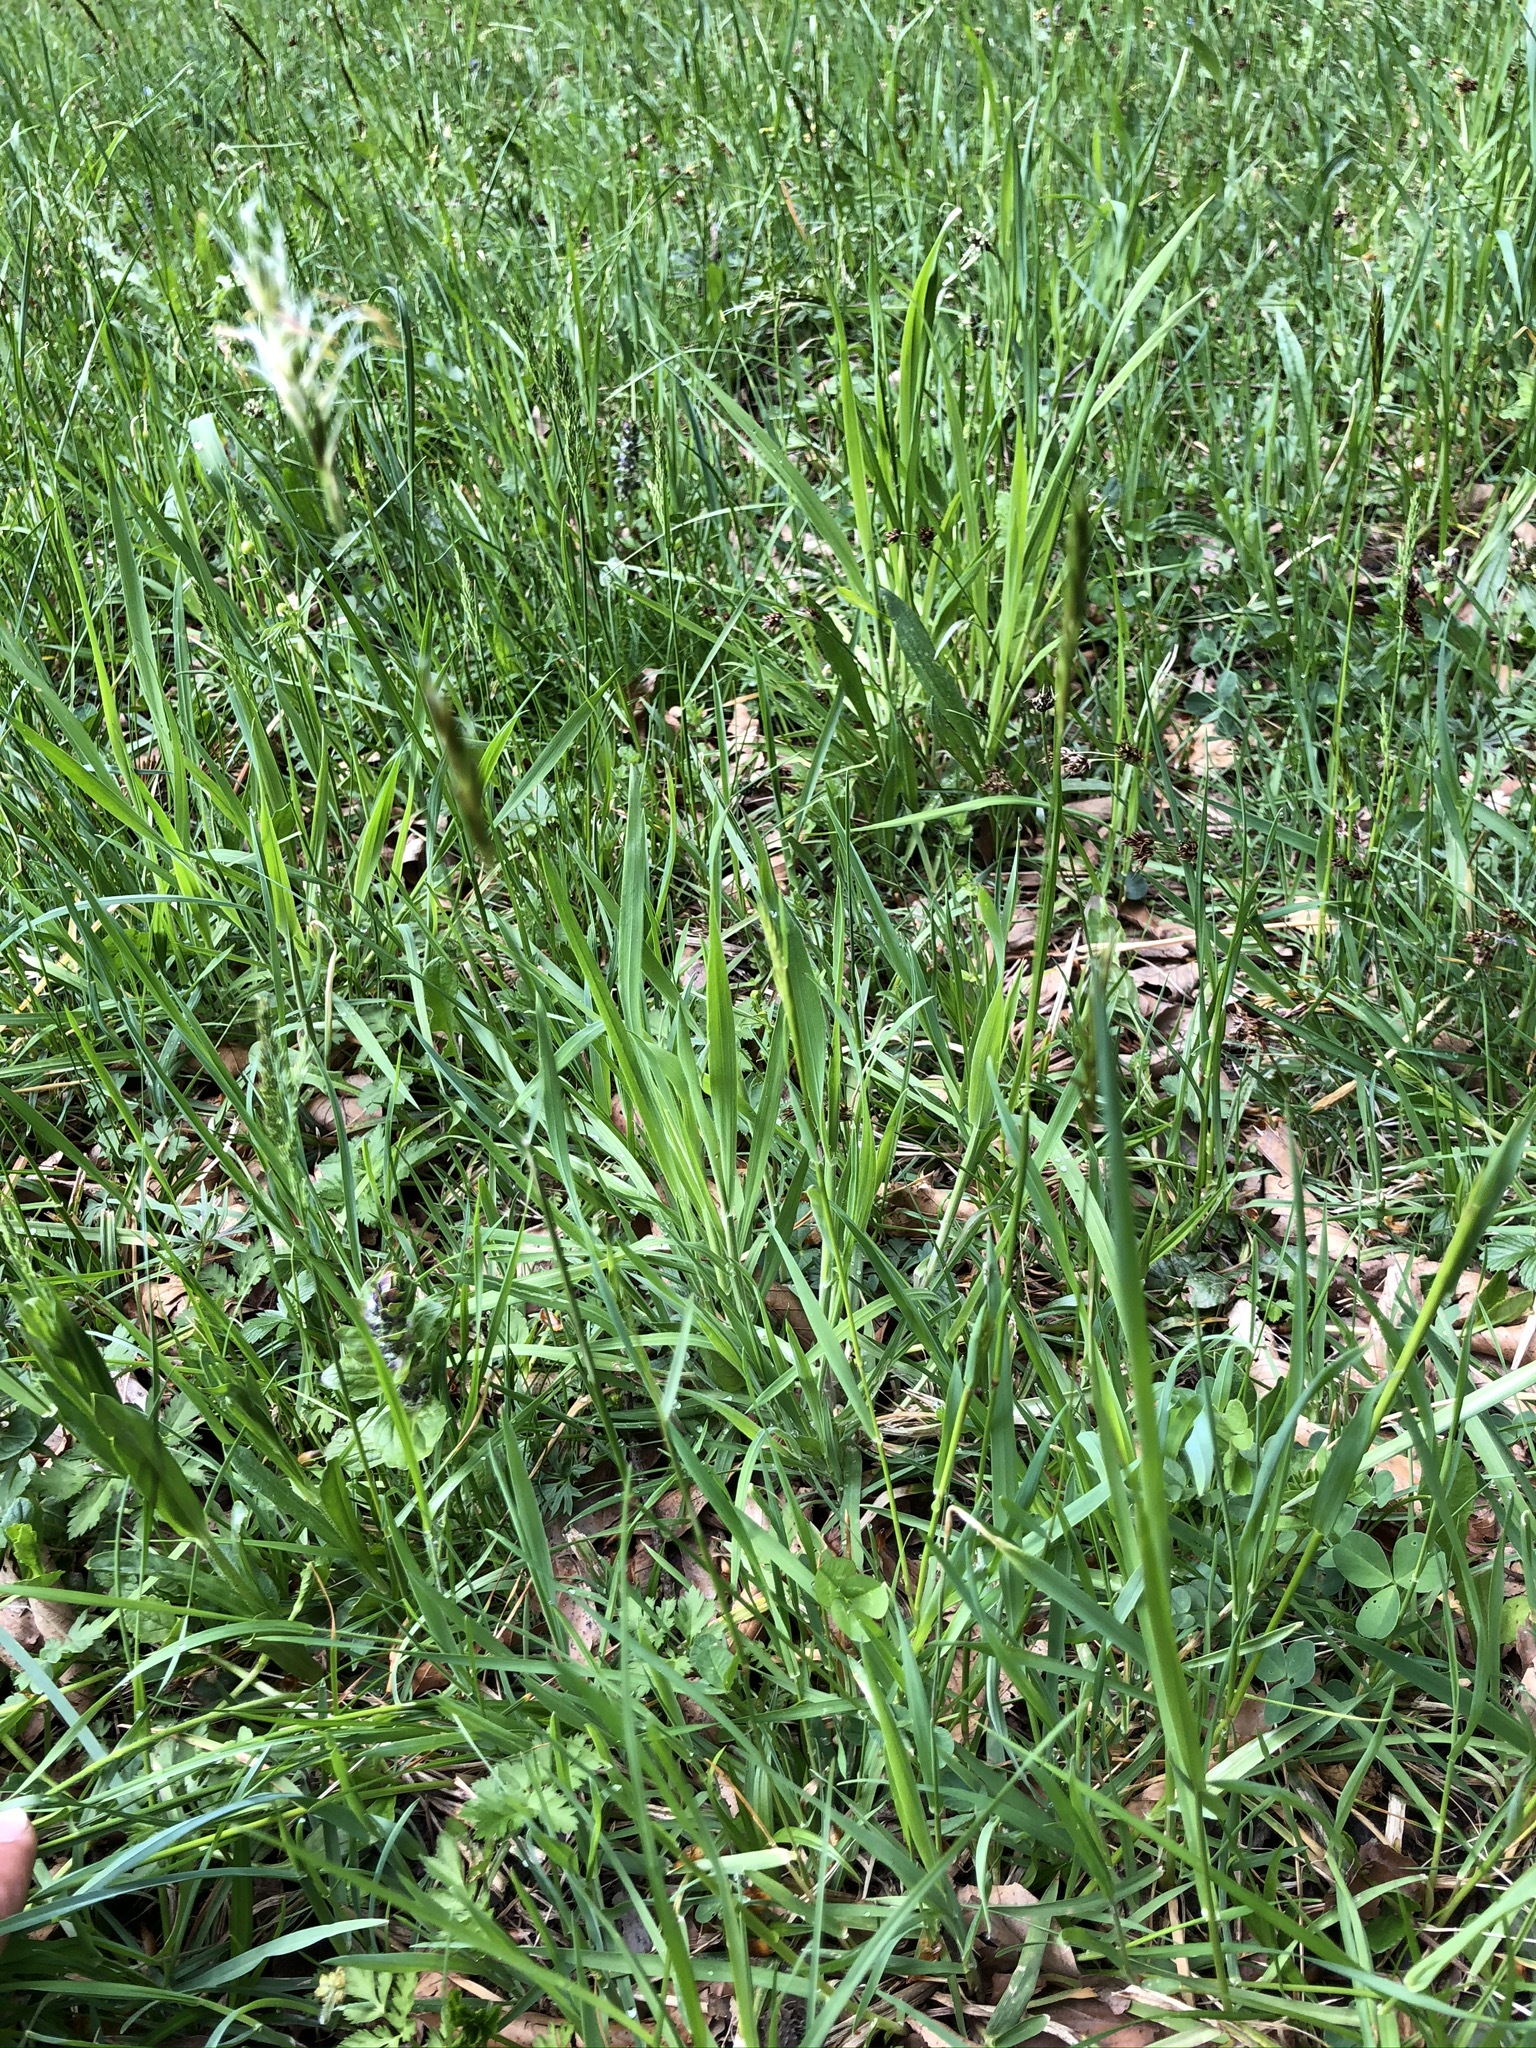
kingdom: Plantae
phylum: Tracheophyta
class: Liliopsida
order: Poales
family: Poaceae
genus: Anthoxanthum
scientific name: Anthoxanthum odoratum
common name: Sweet vernalgrass
